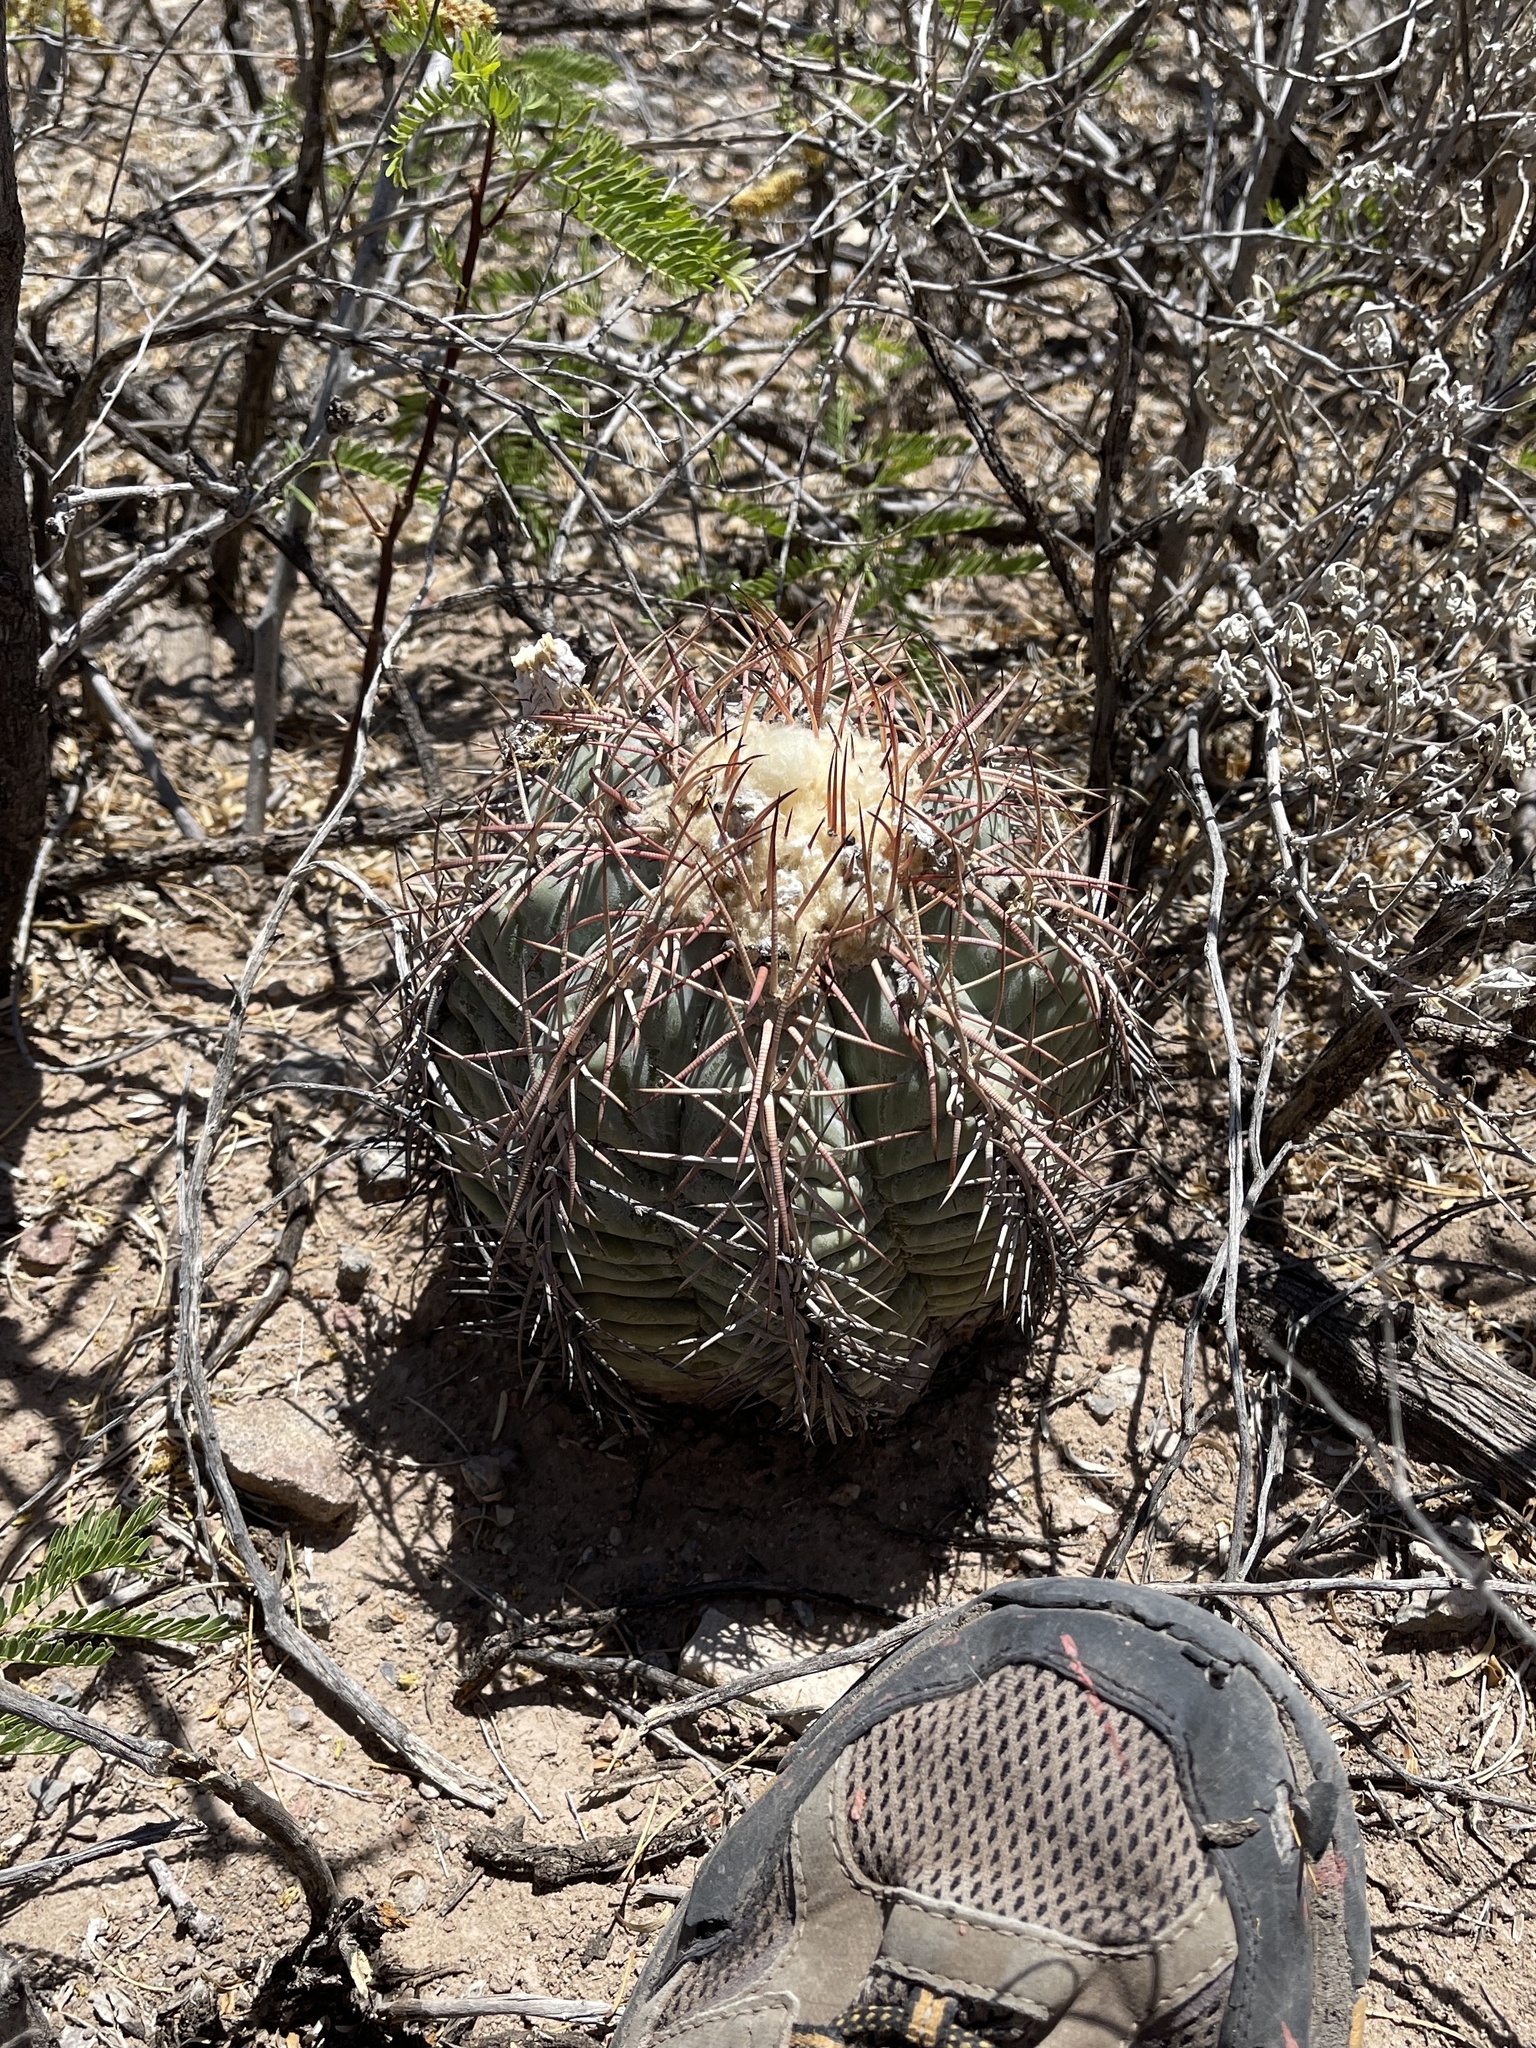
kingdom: Plantae
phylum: Tracheophyta
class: Magnoliopsida
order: Caryophyllales
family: Cactaceae
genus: Echinocactus
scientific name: Echinocactus horizonthalonius
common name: Devilshead
